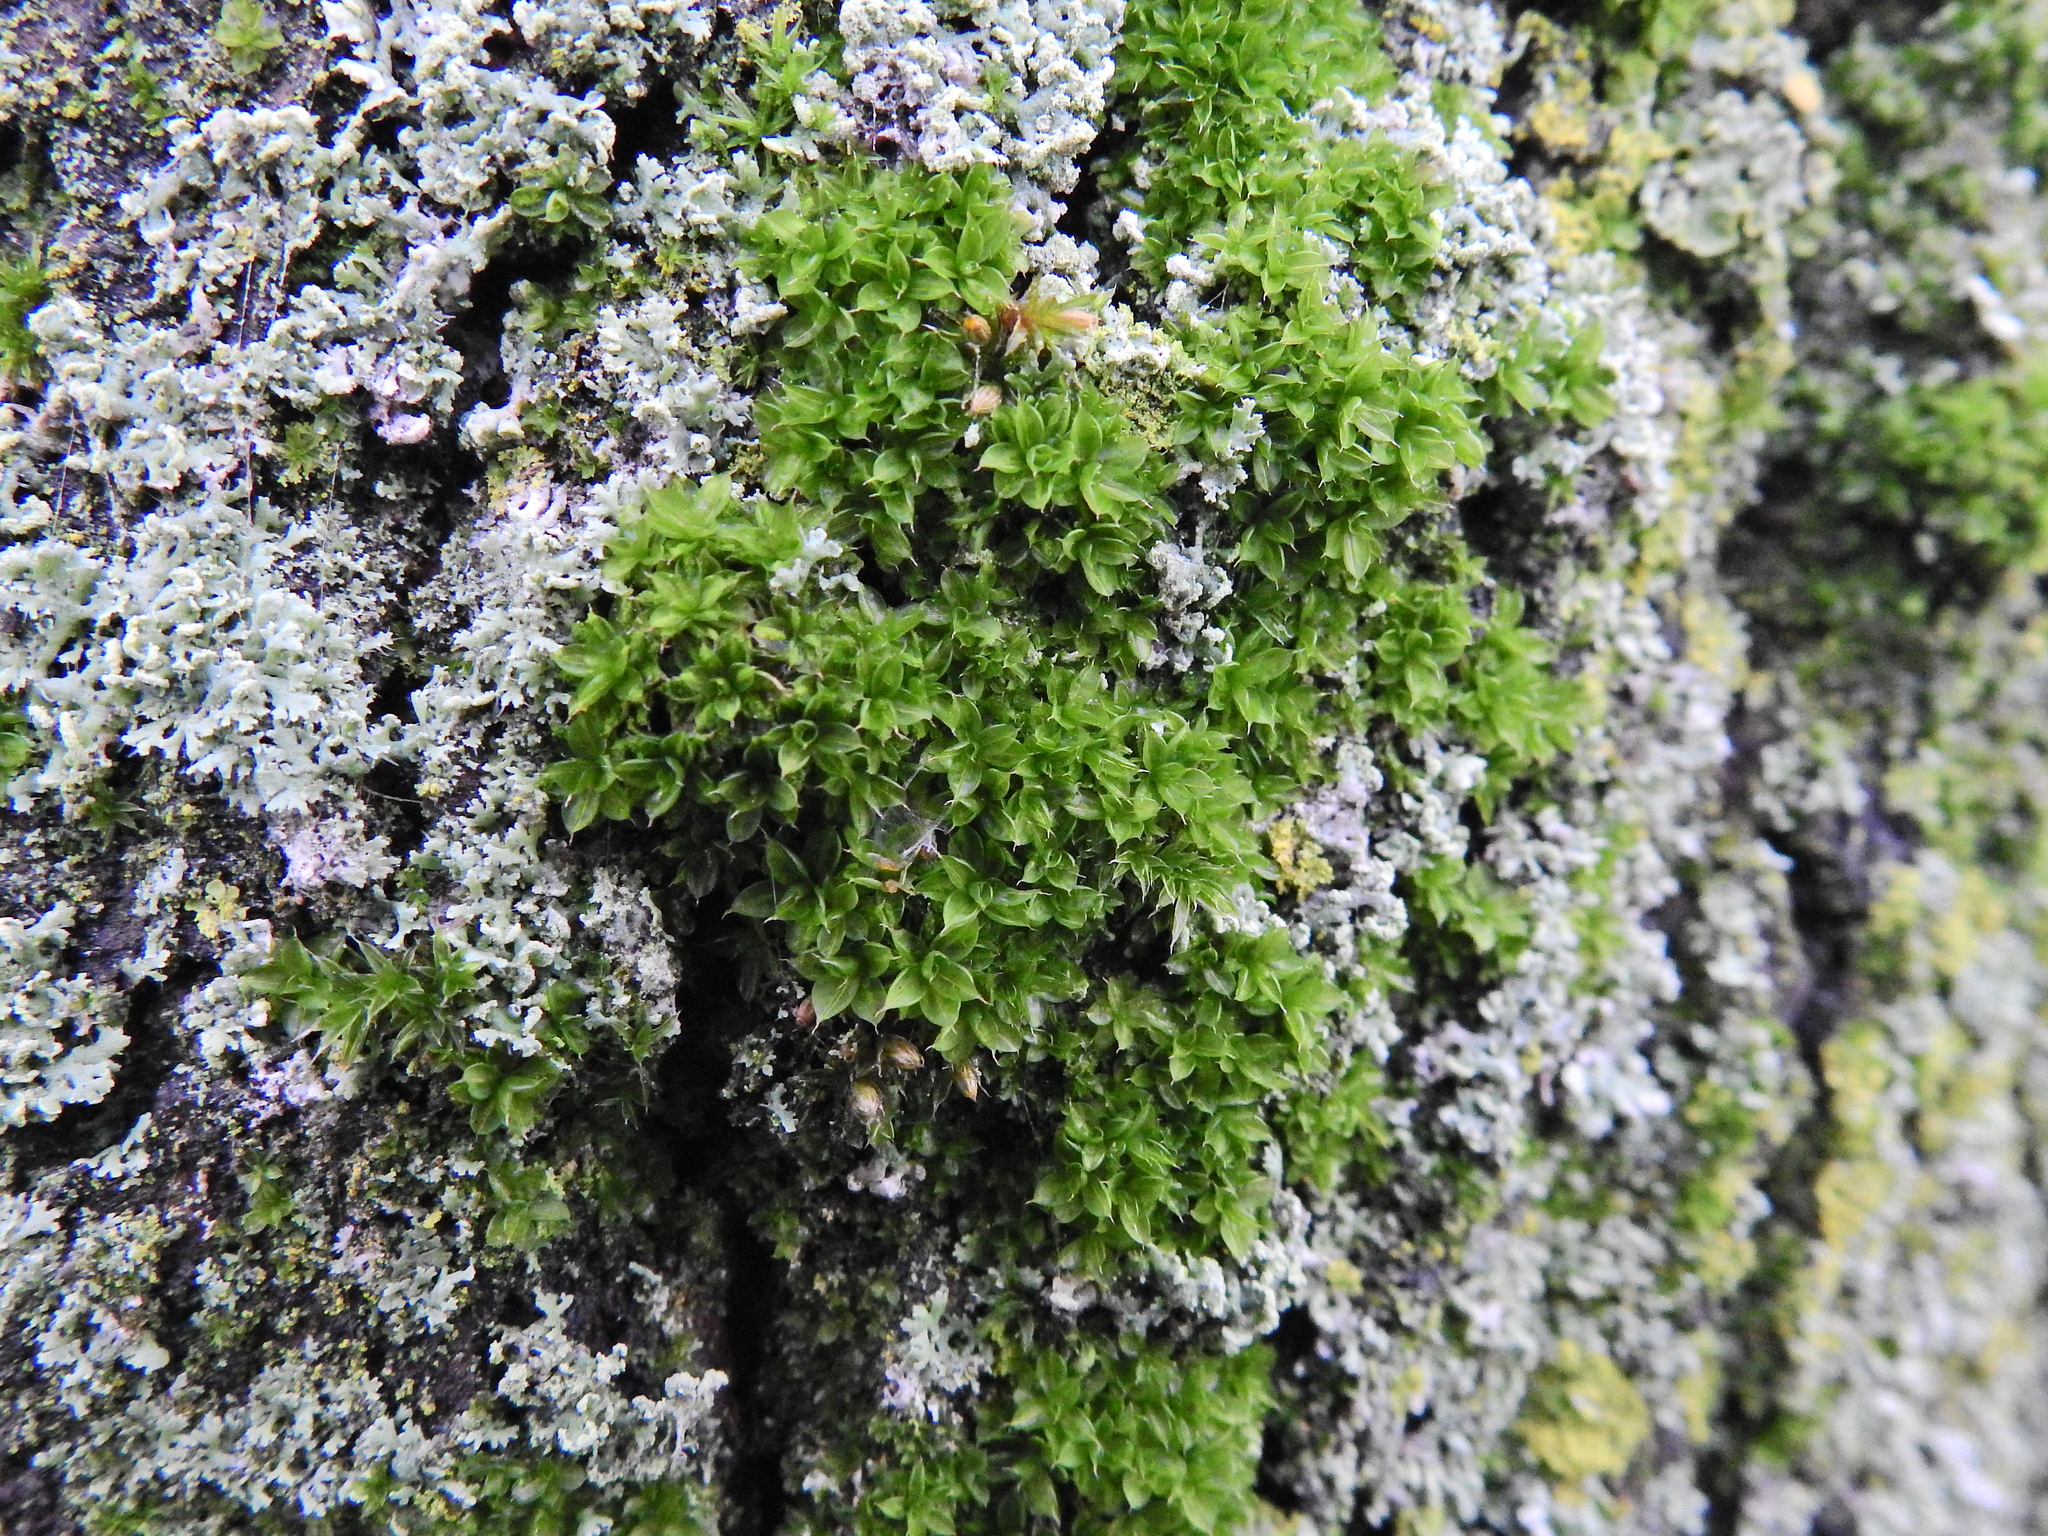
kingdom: Plantae
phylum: Bryophyta
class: Bryopsida
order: Pottiales
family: Pottiaceae
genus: Syntrichia
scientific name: Syntrichia papillosa
